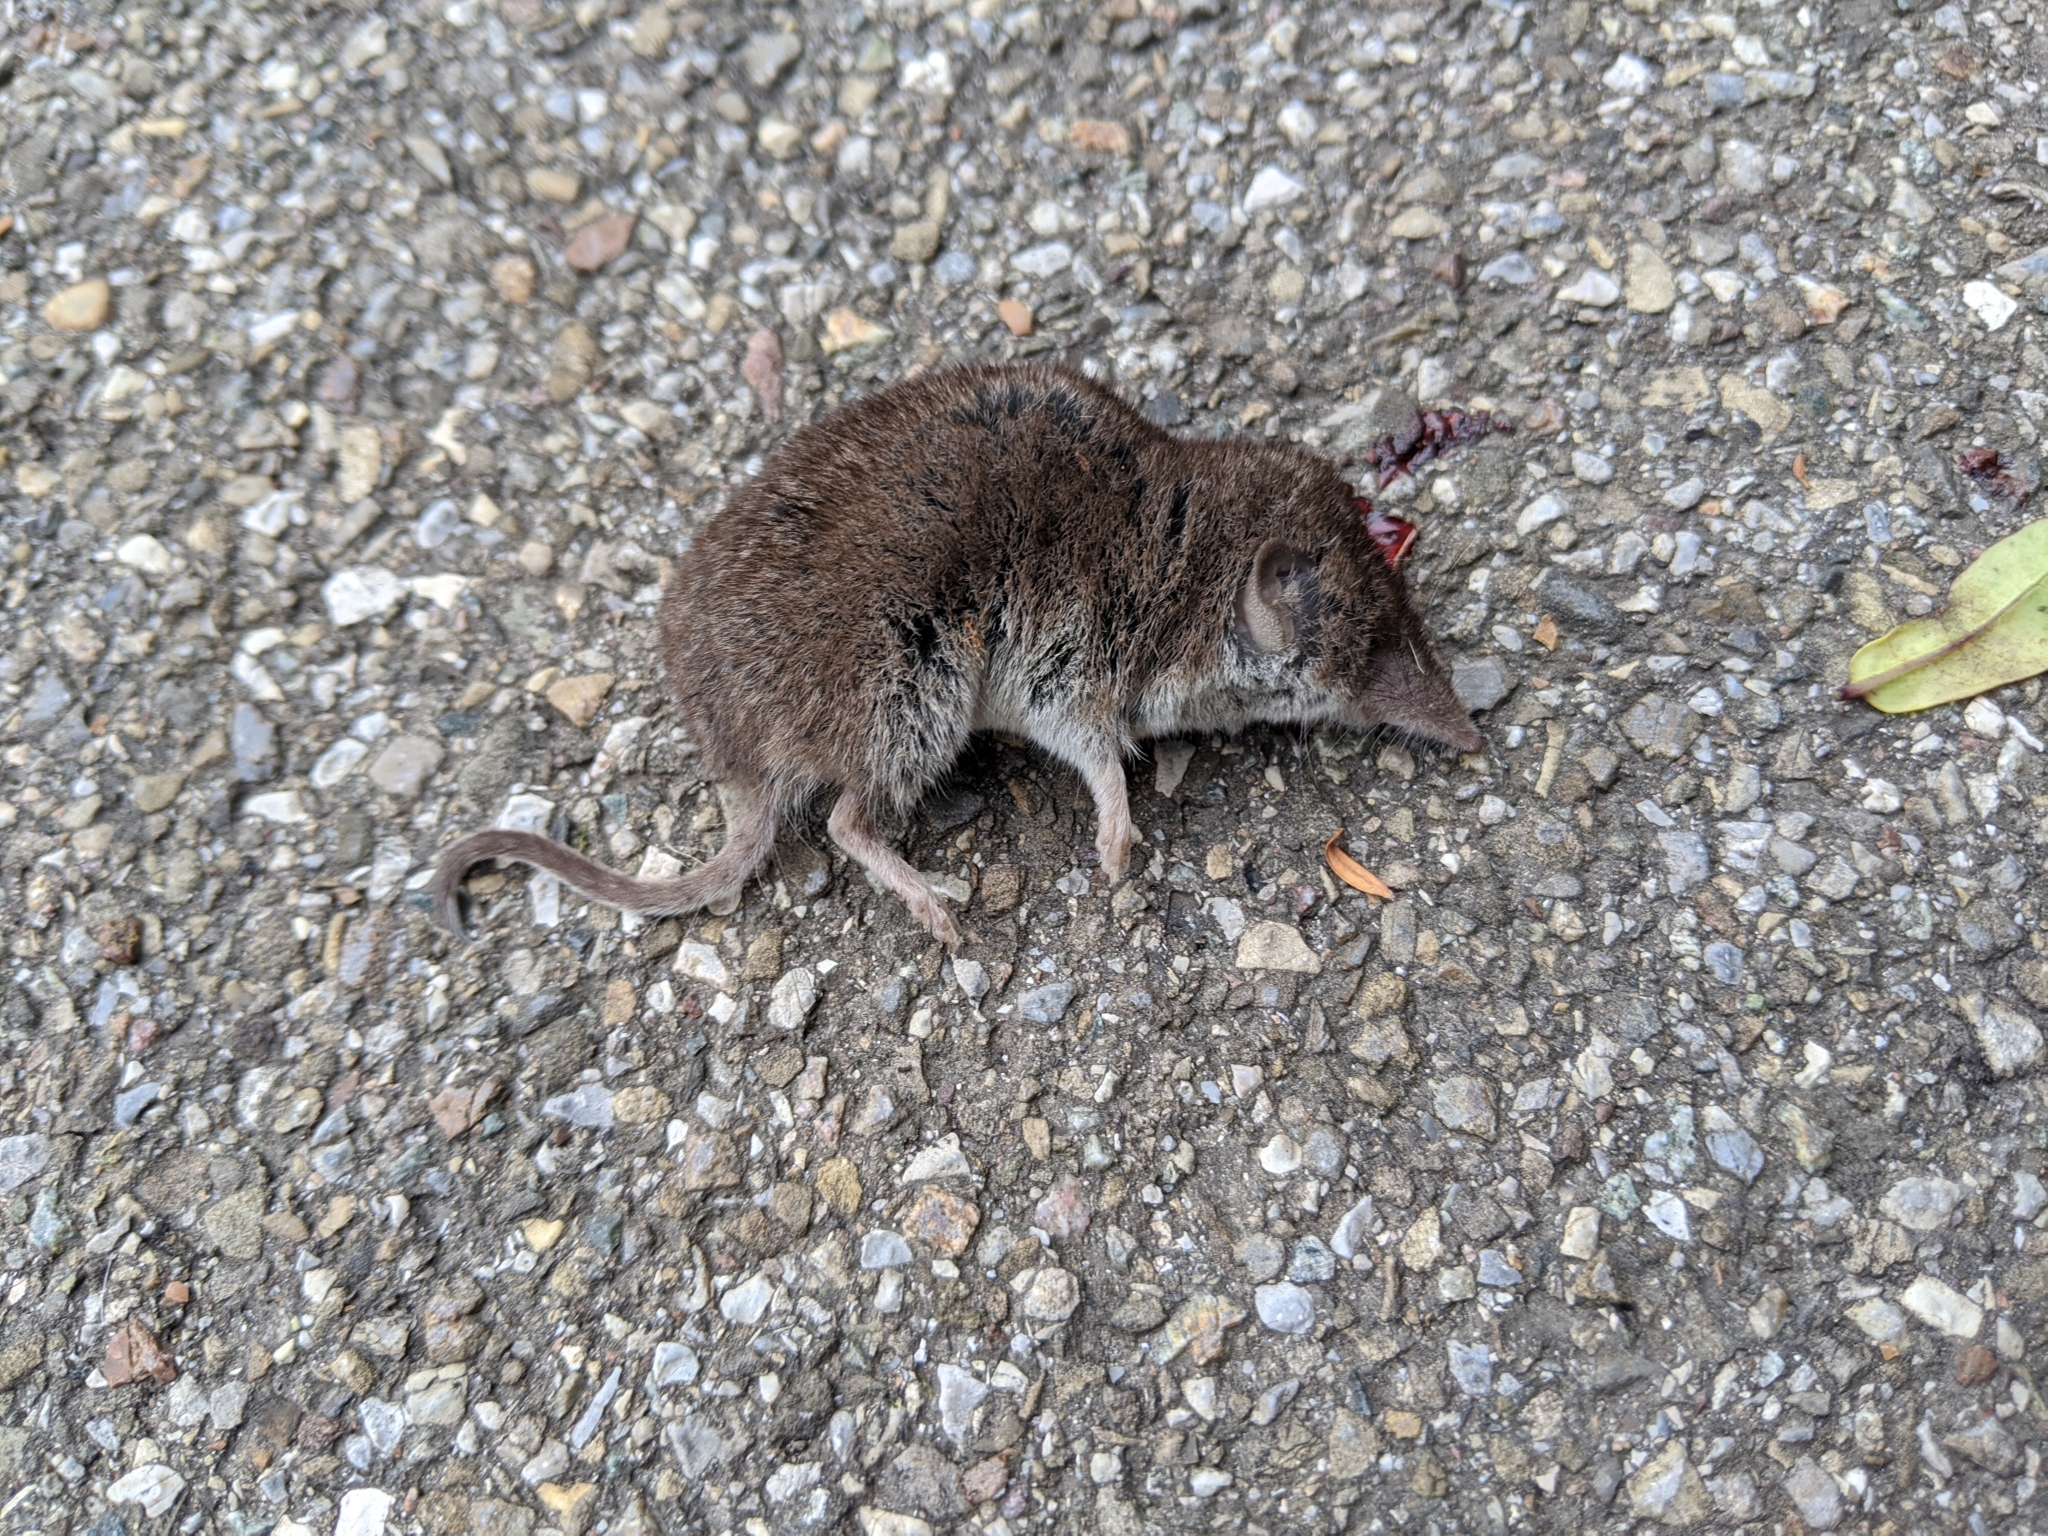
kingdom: Animalia
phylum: Chordata
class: Mammalia
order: Soricomorpha
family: Soricidae
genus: Crocidura
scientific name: Crocidura russula
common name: Greater white-toothed shrew
